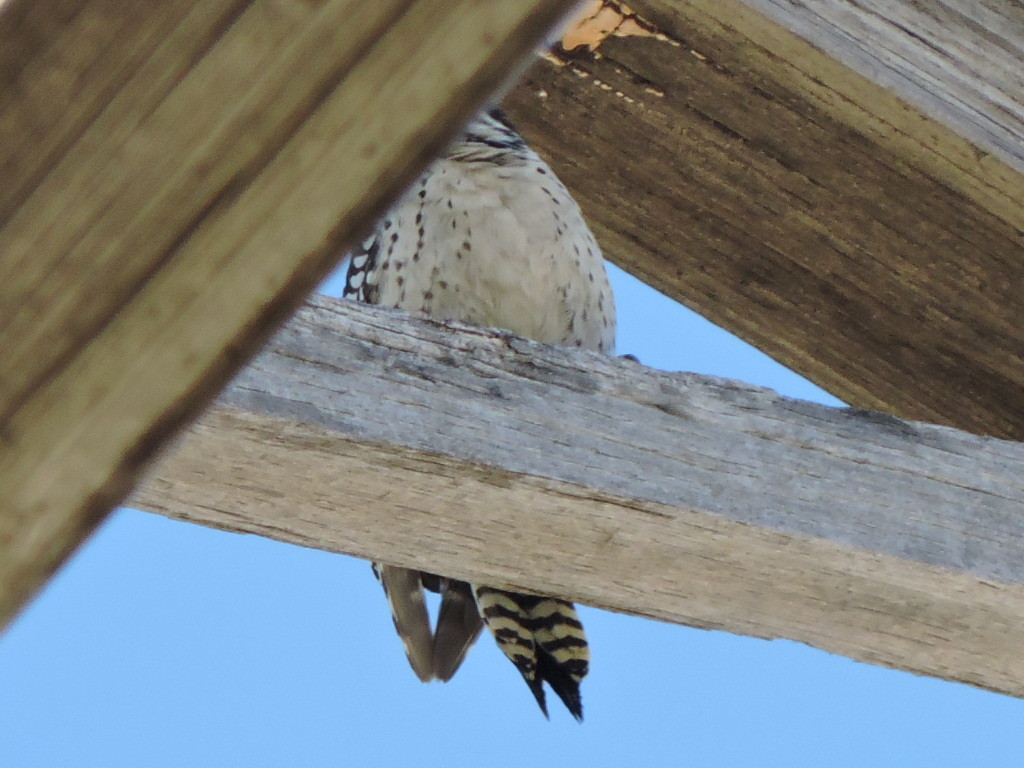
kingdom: Animalia
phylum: Chordata
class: Aves
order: Piciformes
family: Picidae
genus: Dryobates
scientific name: Dryobates scalaris
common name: Ladder-backed woodpecker
